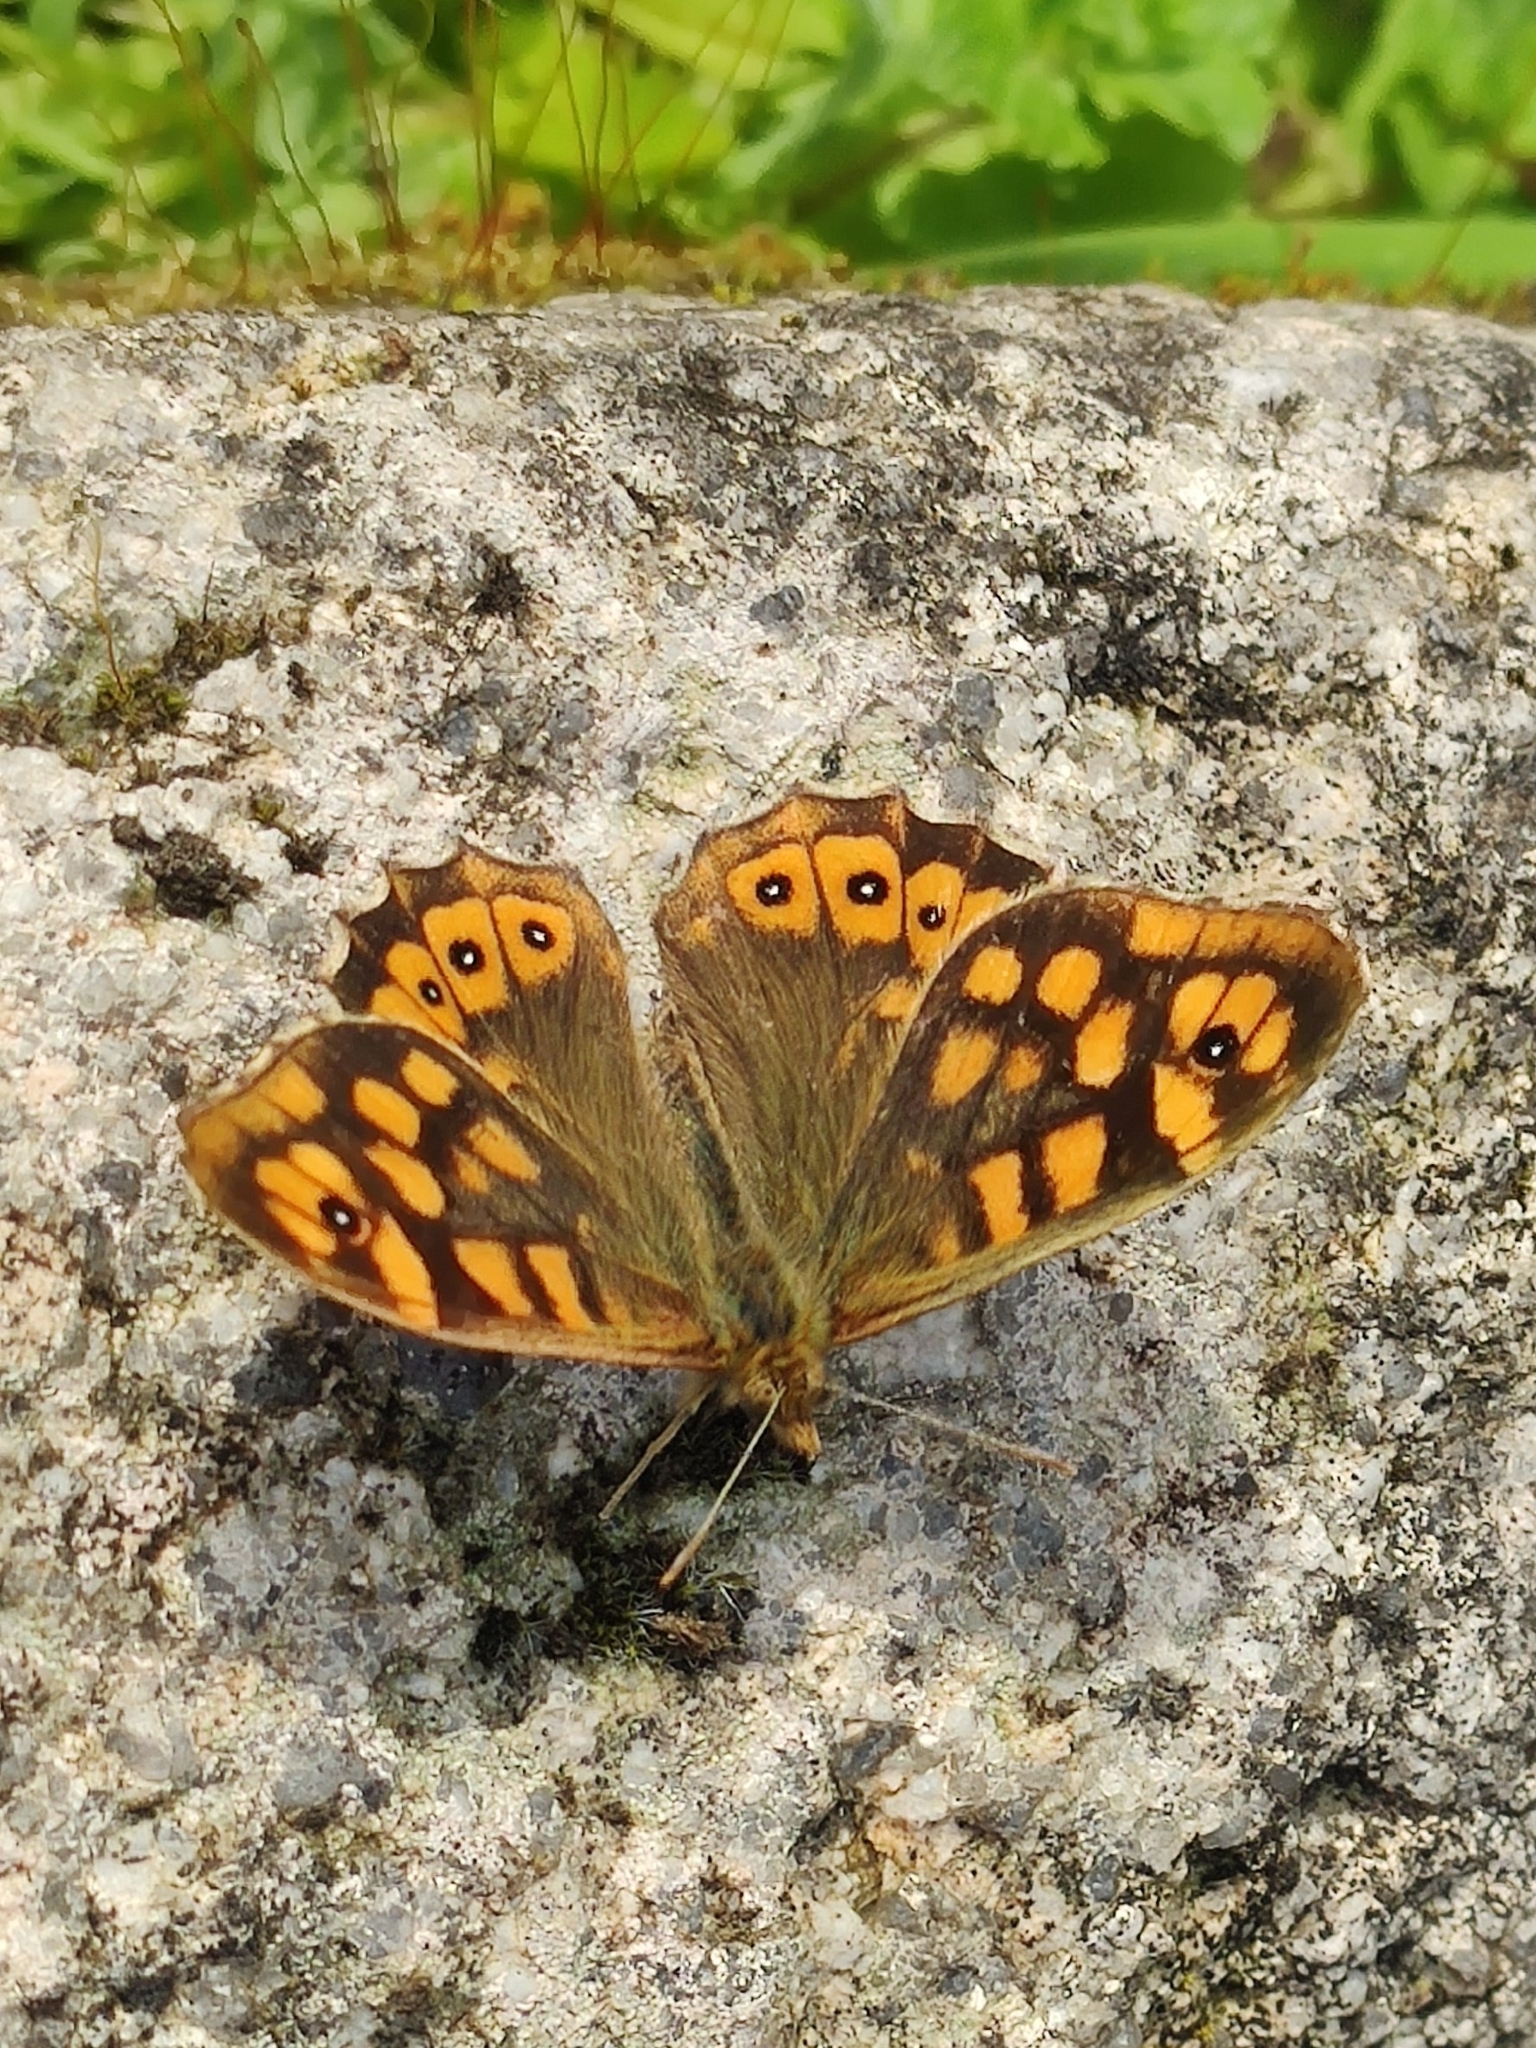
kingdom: Animalia
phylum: Arthropoda
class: Insecta
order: Lepidoptera
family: Nymphalidae
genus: Pararge
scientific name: Pararge aegeria
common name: Speckled wood
